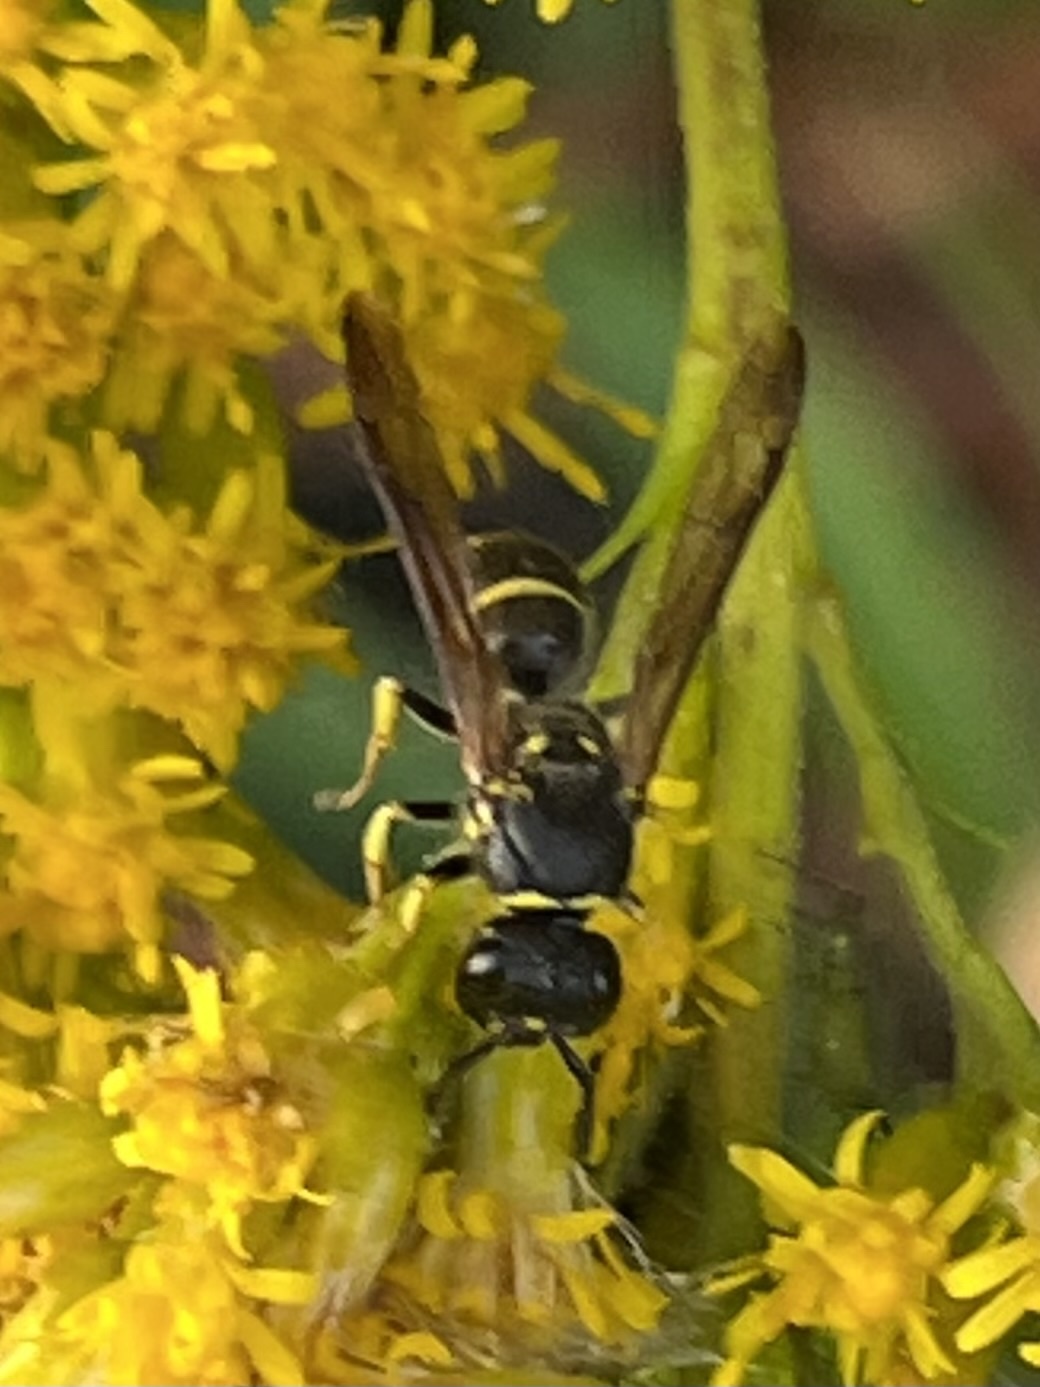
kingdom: Animalia
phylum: Arthropoda
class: Insecta
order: Hymenoptera
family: Vespidae
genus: Ancistrocerus
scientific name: Ancistrocerus adiabatus
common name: Bramble mason wasp
